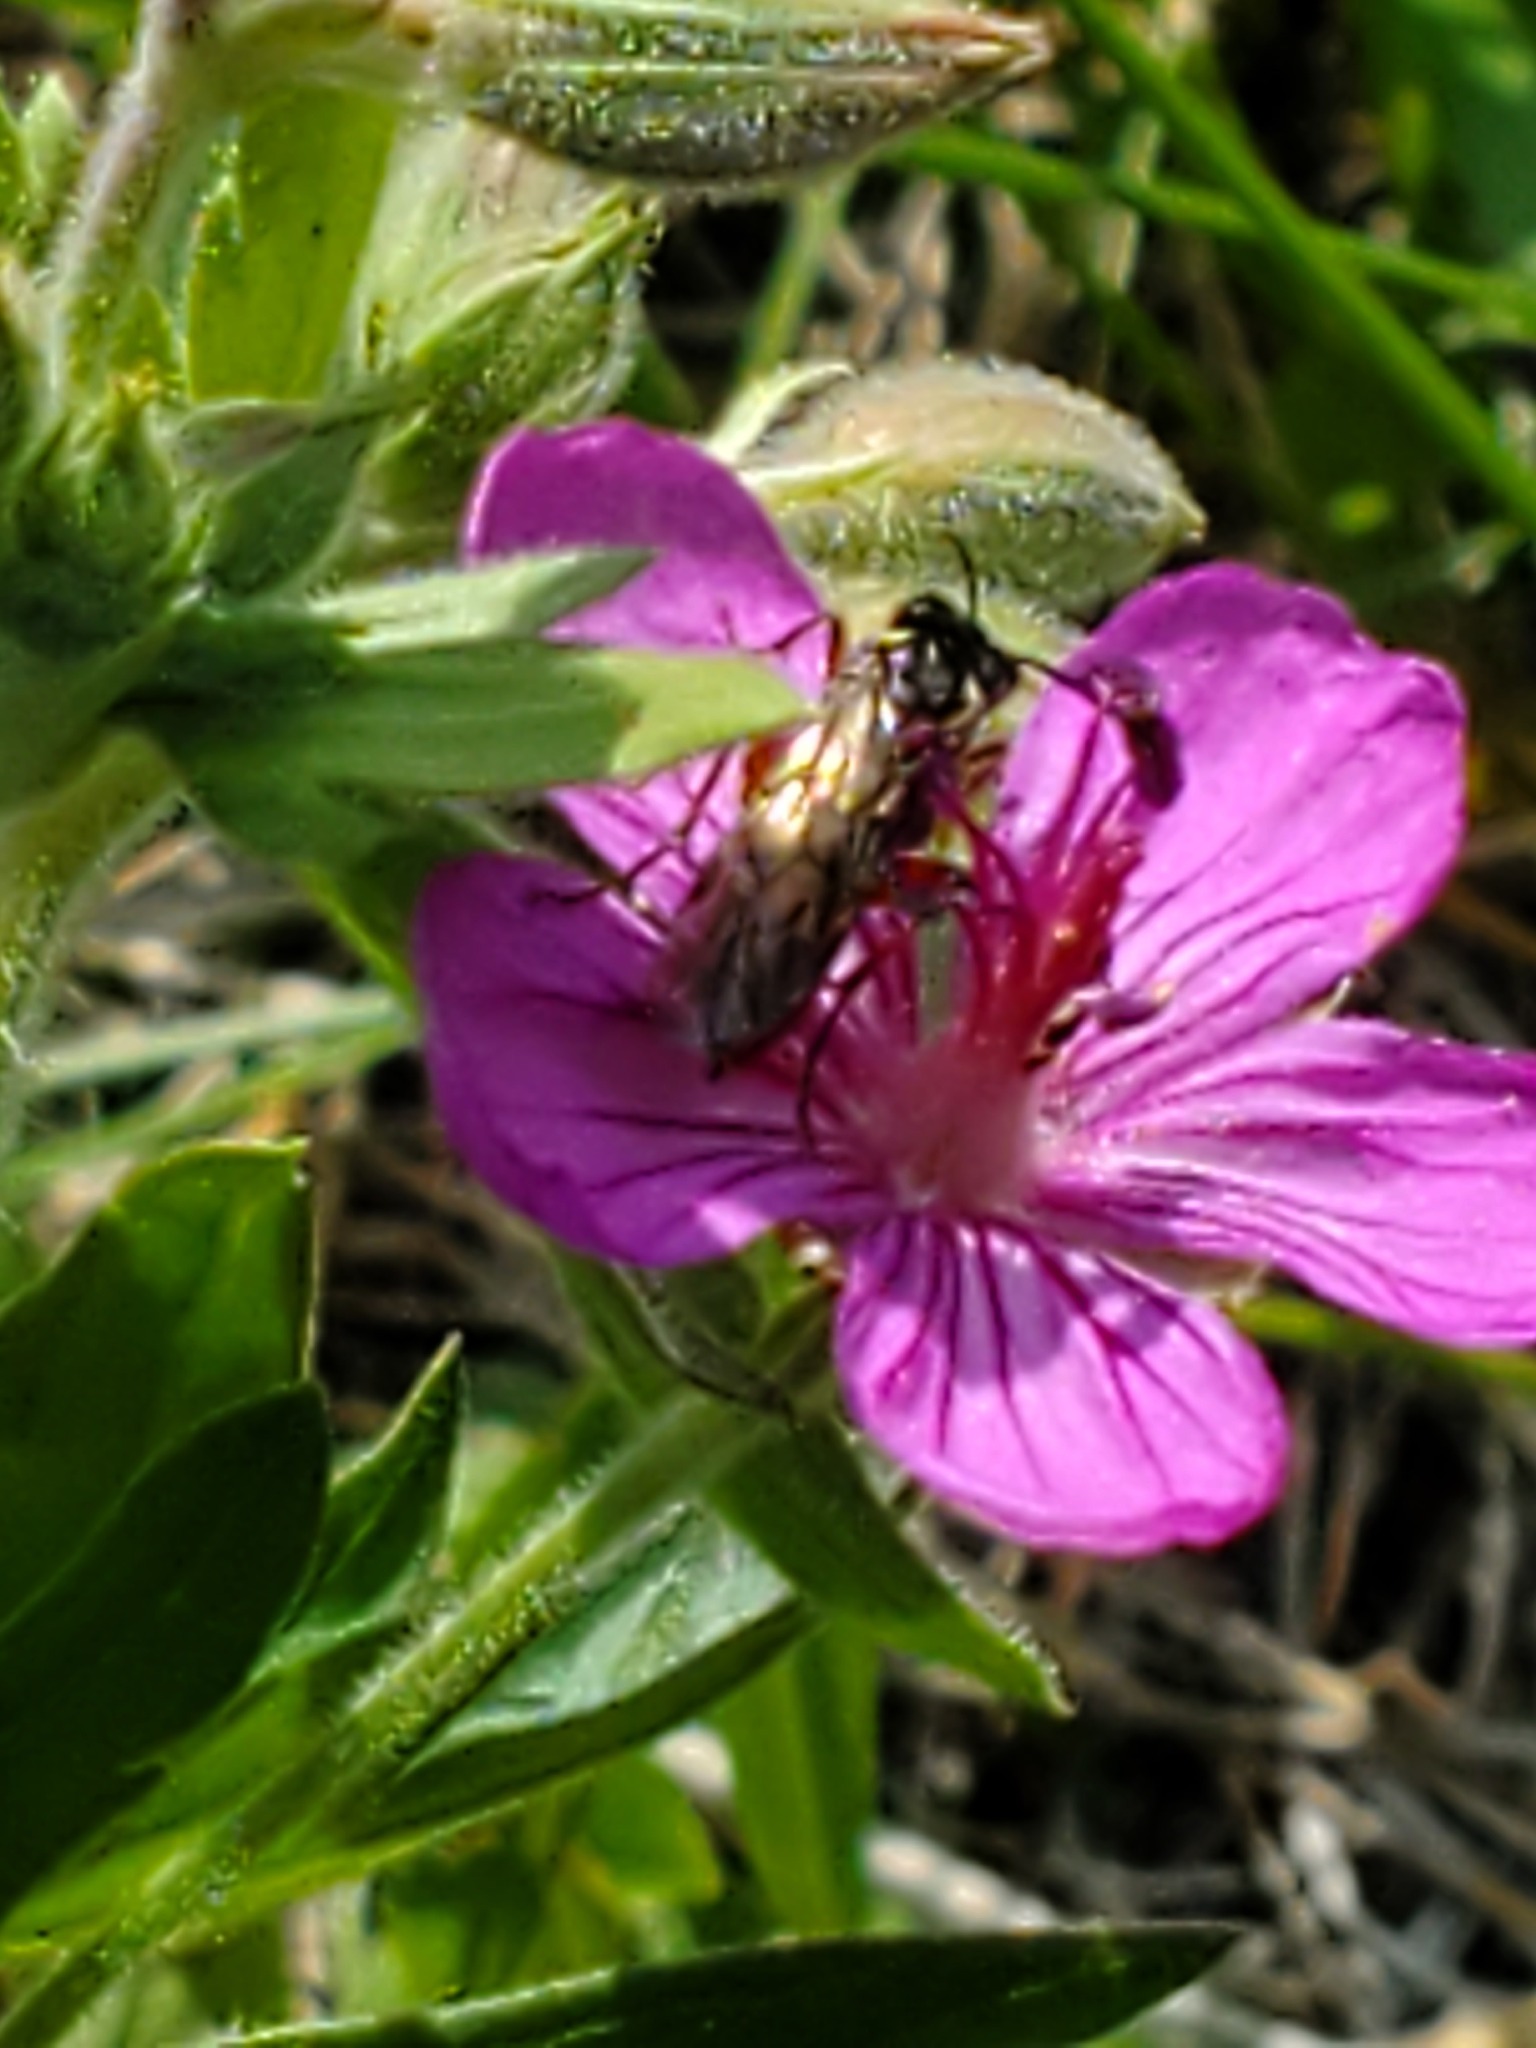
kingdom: Plantae
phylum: Tracheophyta
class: Magnoliopsida
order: Geraniales
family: Geraniaceae
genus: Geranium
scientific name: Geranium viscosissimum
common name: Purple geranium
